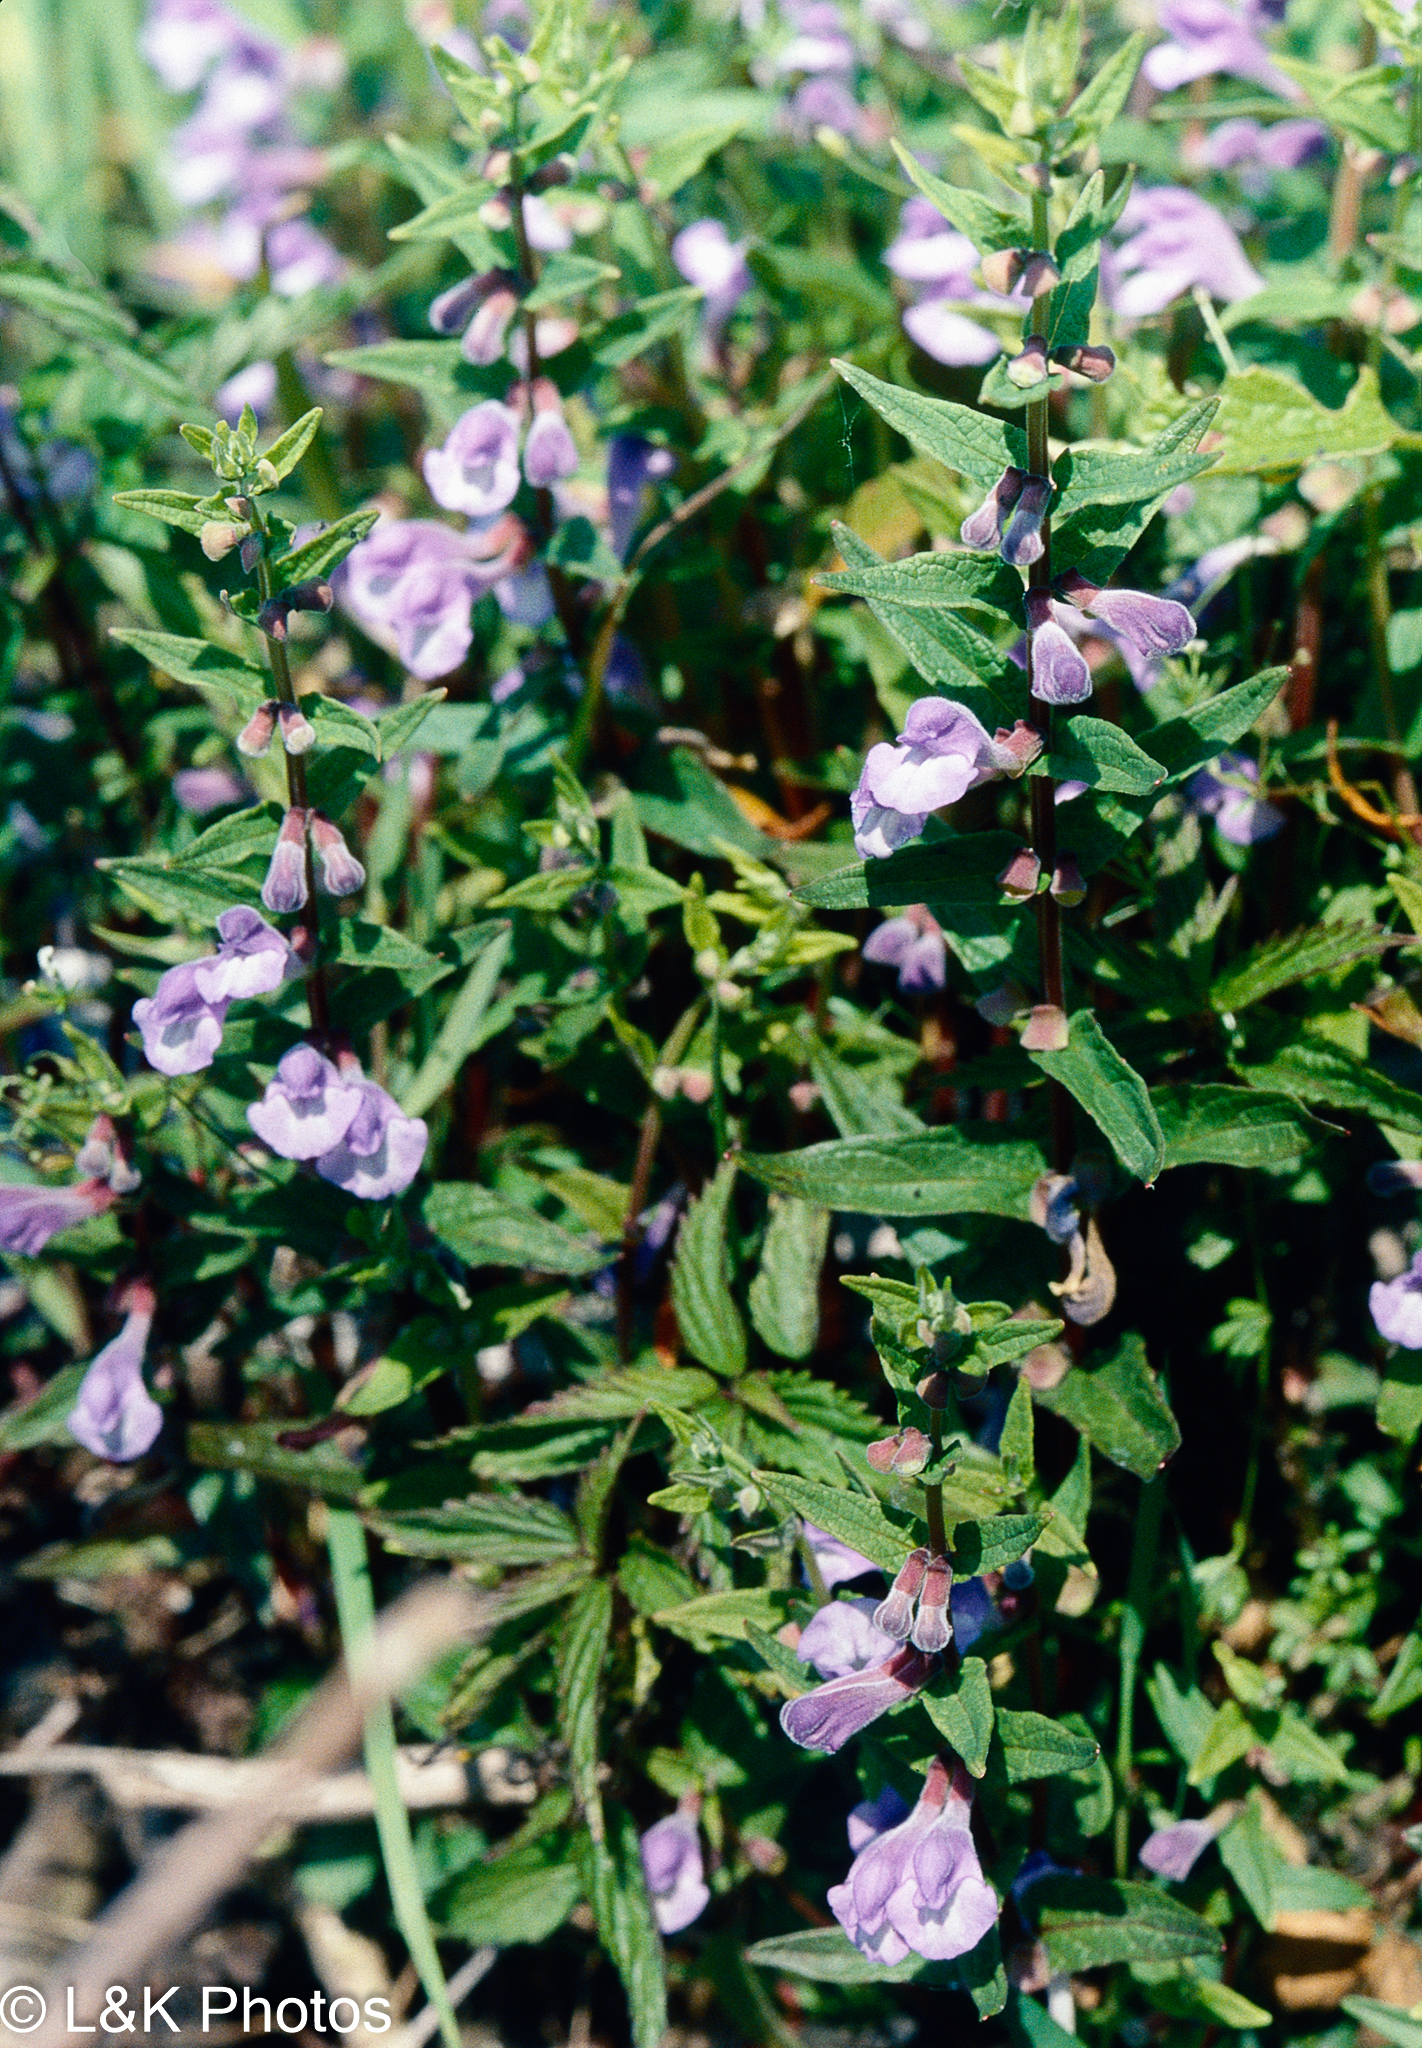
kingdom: Plantae
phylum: Tracheophyta
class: Magnoliopsida
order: Lamiales
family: Lamiaceae
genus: Scutellaria
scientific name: Scutellaria galericulata
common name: Skullcap
